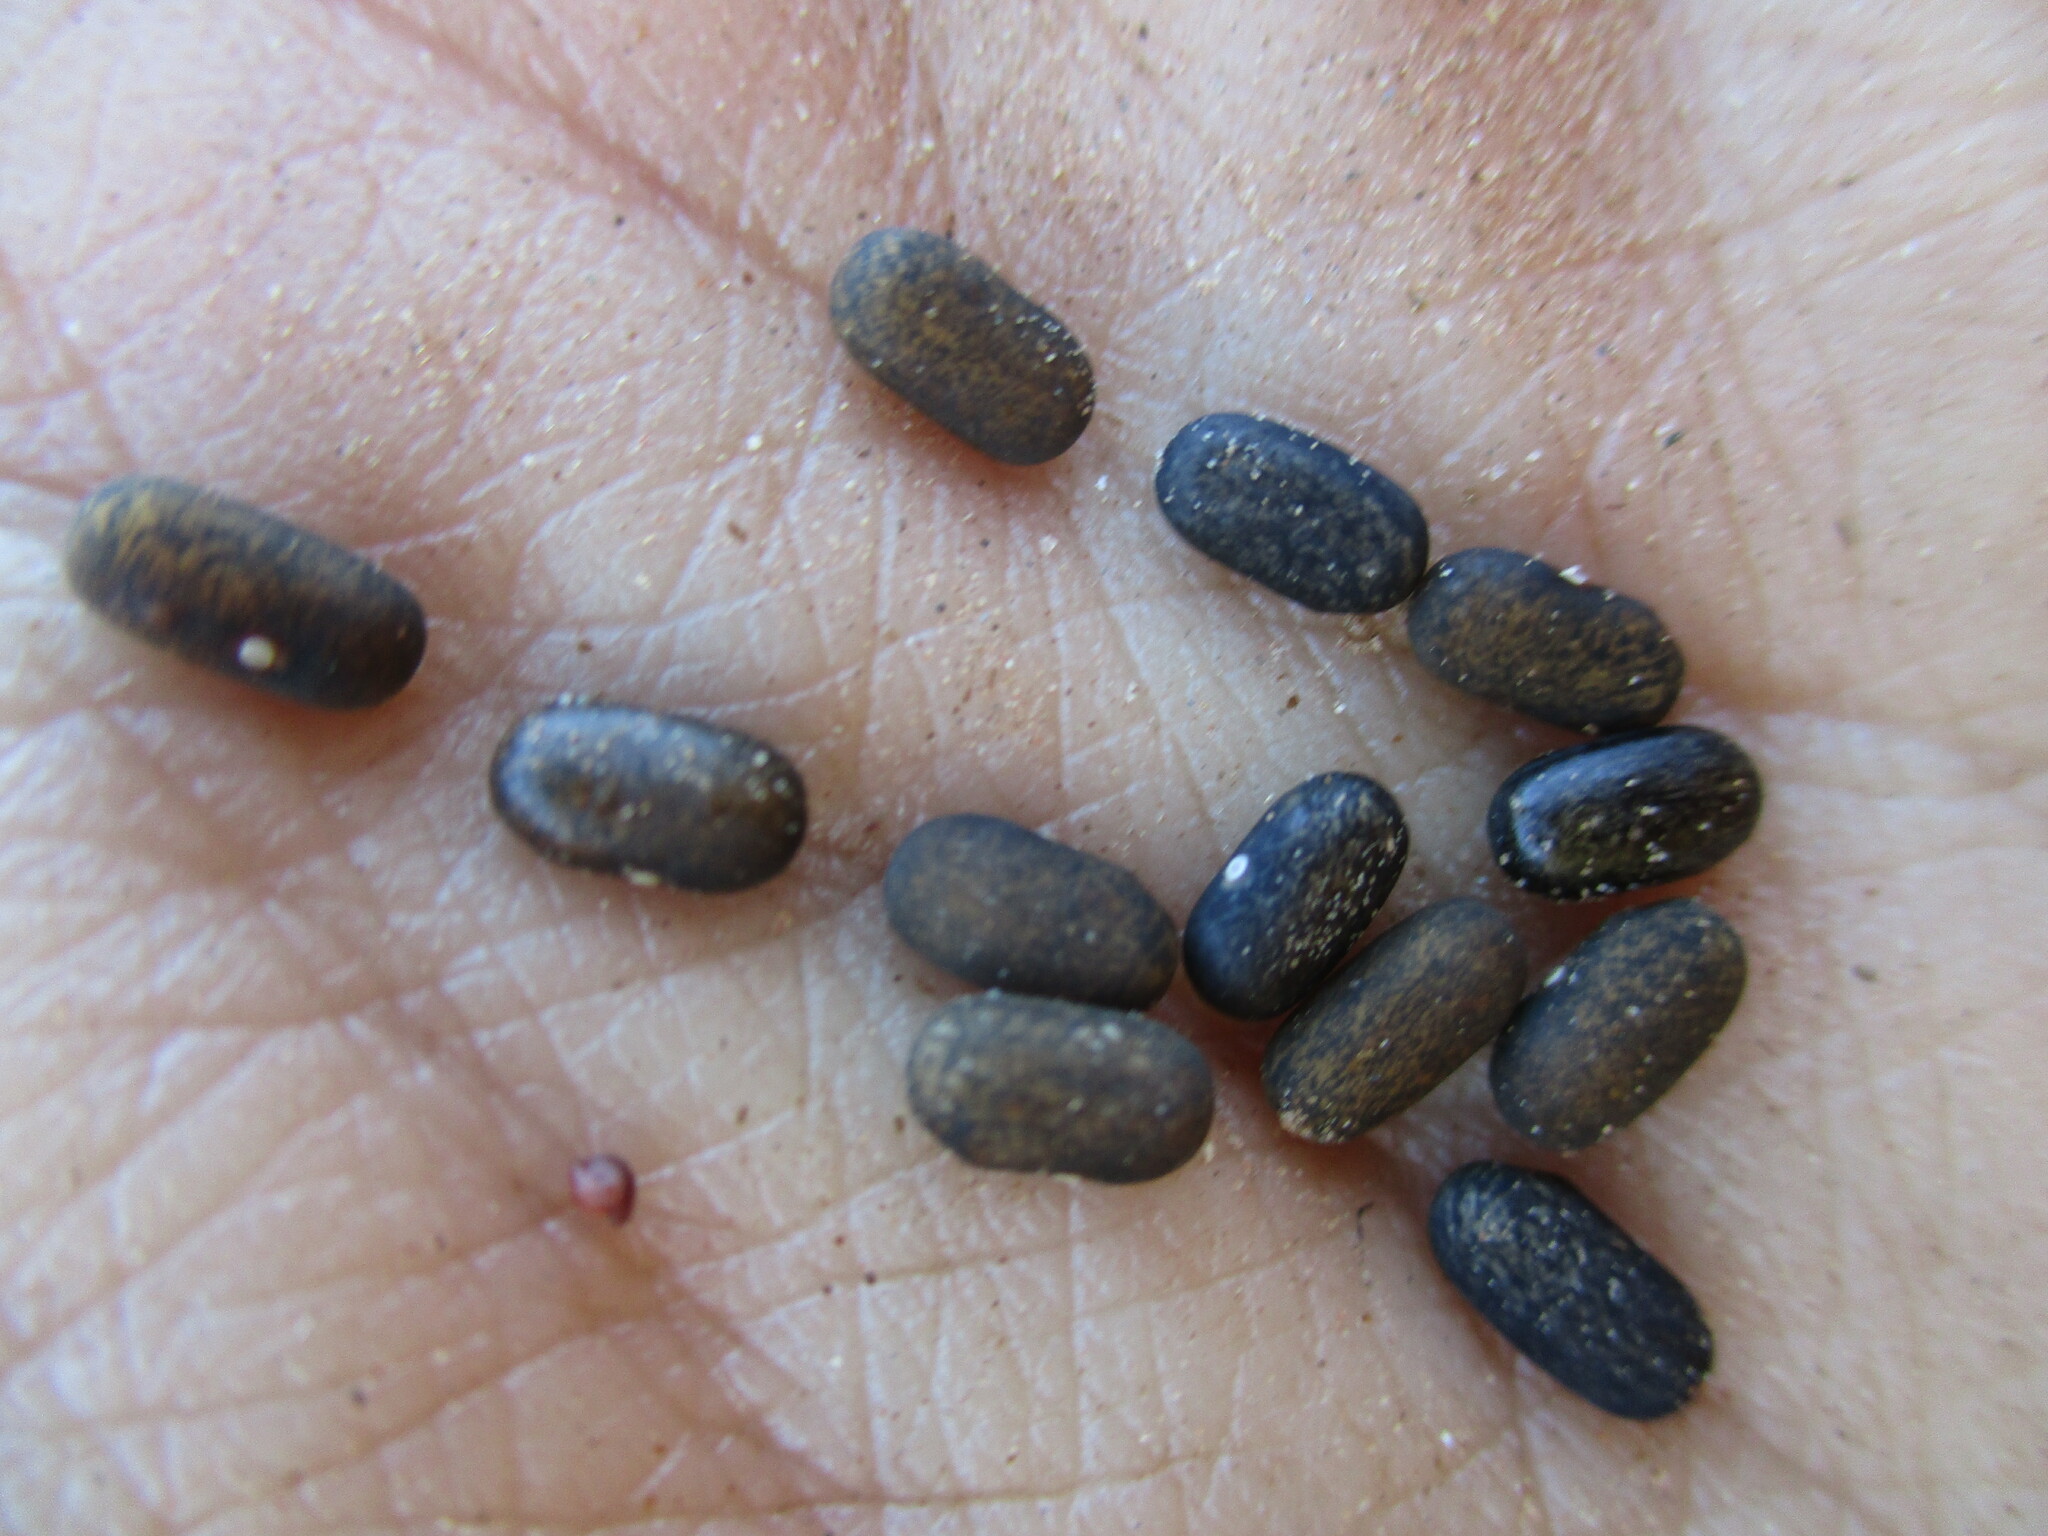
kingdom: Plantae
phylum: Tracheophyta
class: Magnoliopsida
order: Fabales
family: Fabaceae
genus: Sesbania
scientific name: Sesbania pachycarpa
